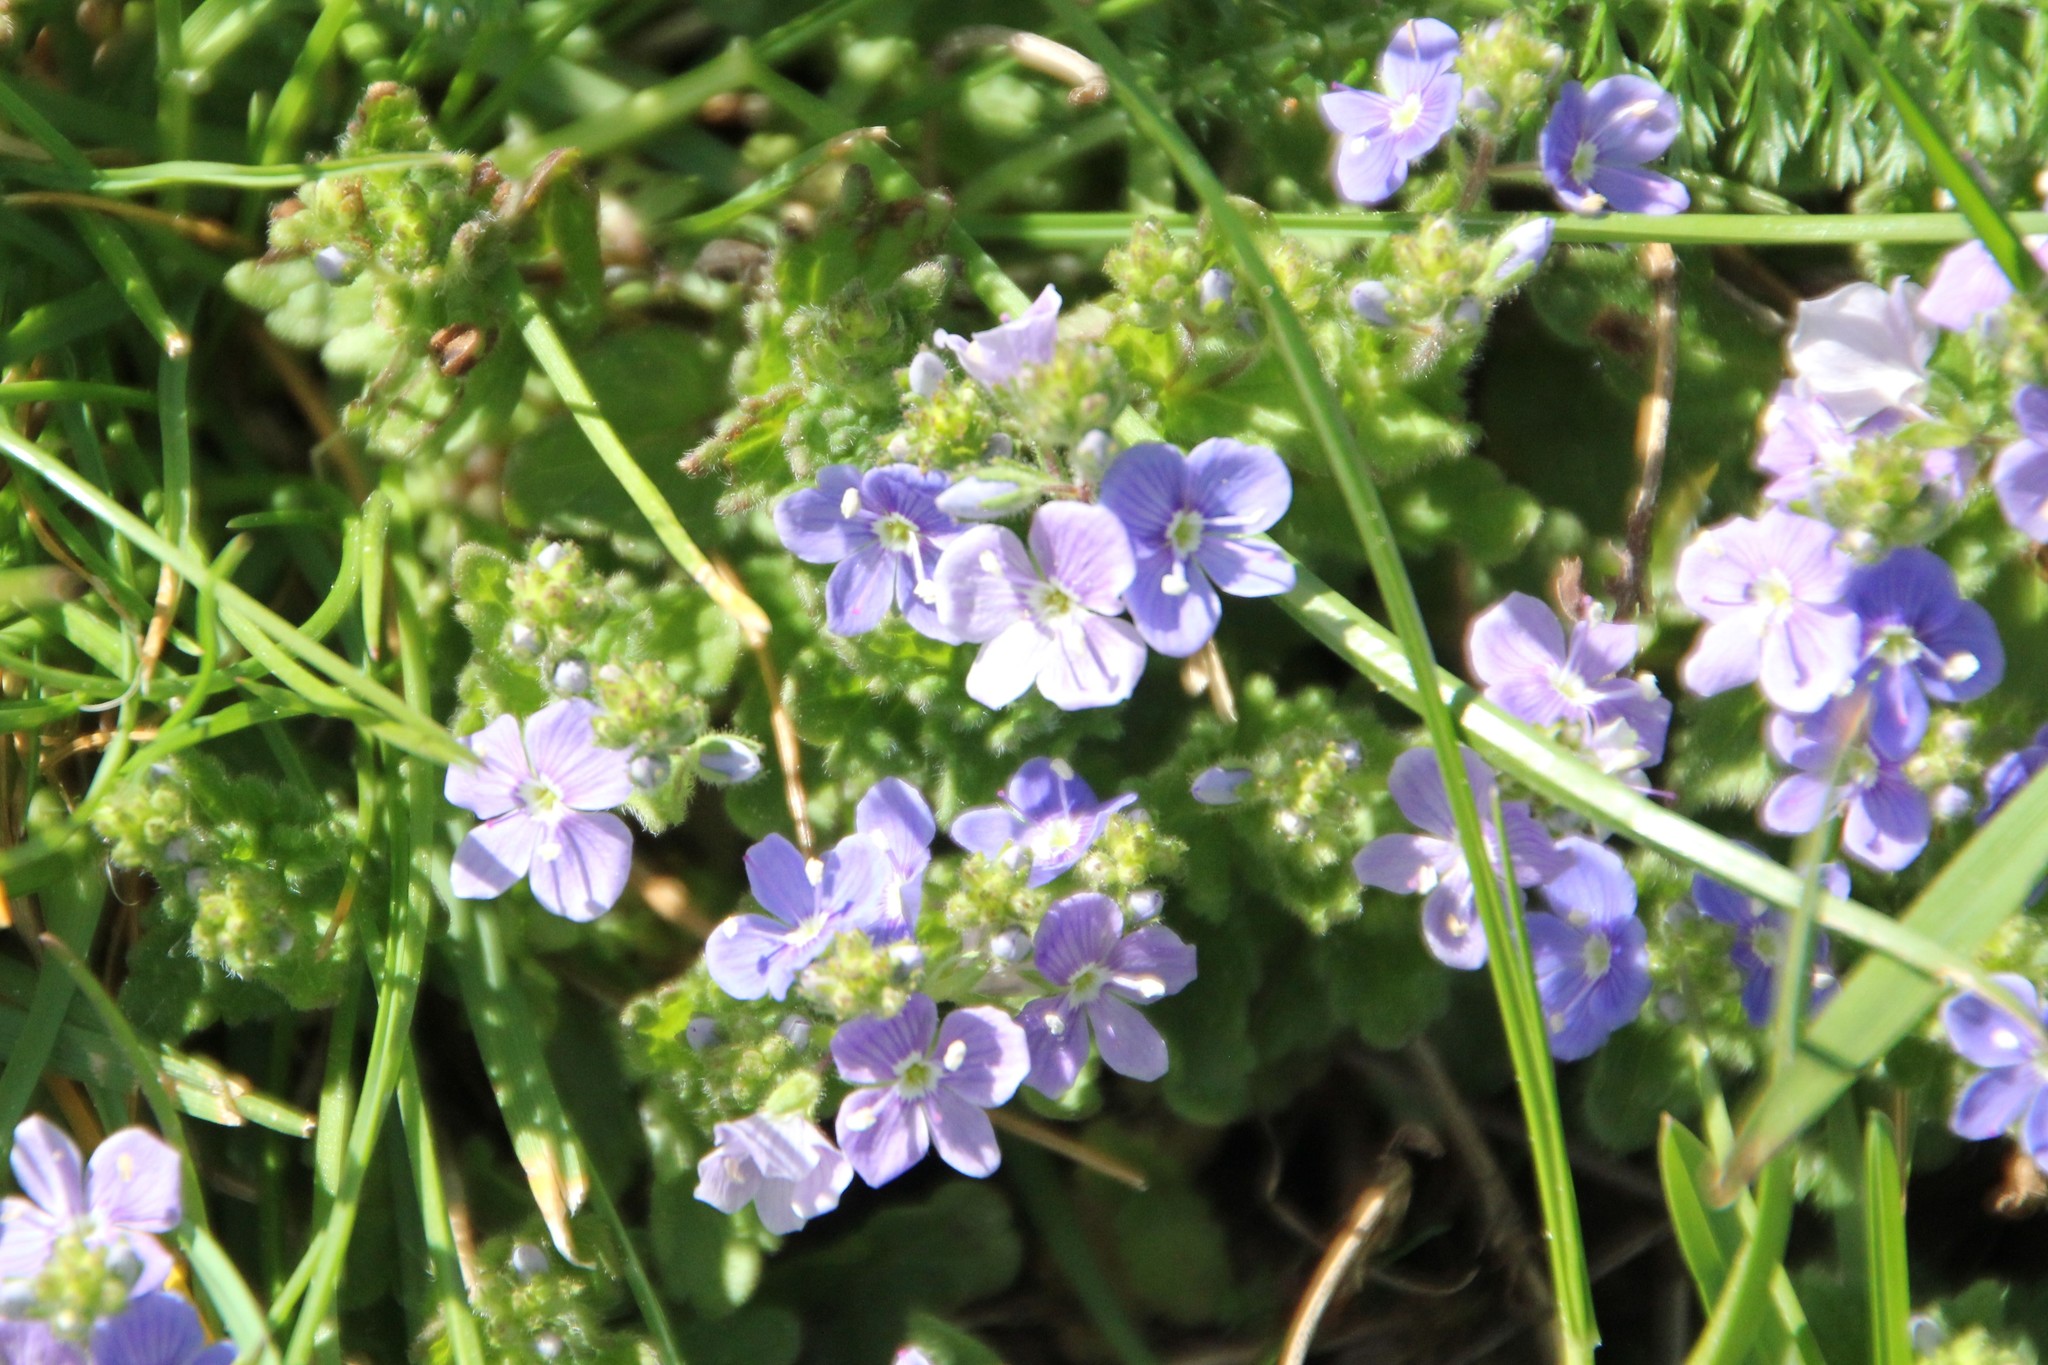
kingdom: Plantae
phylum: Tracheophyta
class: Magnoliopsida
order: Lamiales
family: Plantaginaceae
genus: Veronica
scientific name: Veronica chamaedrys
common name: Germander speedwell
